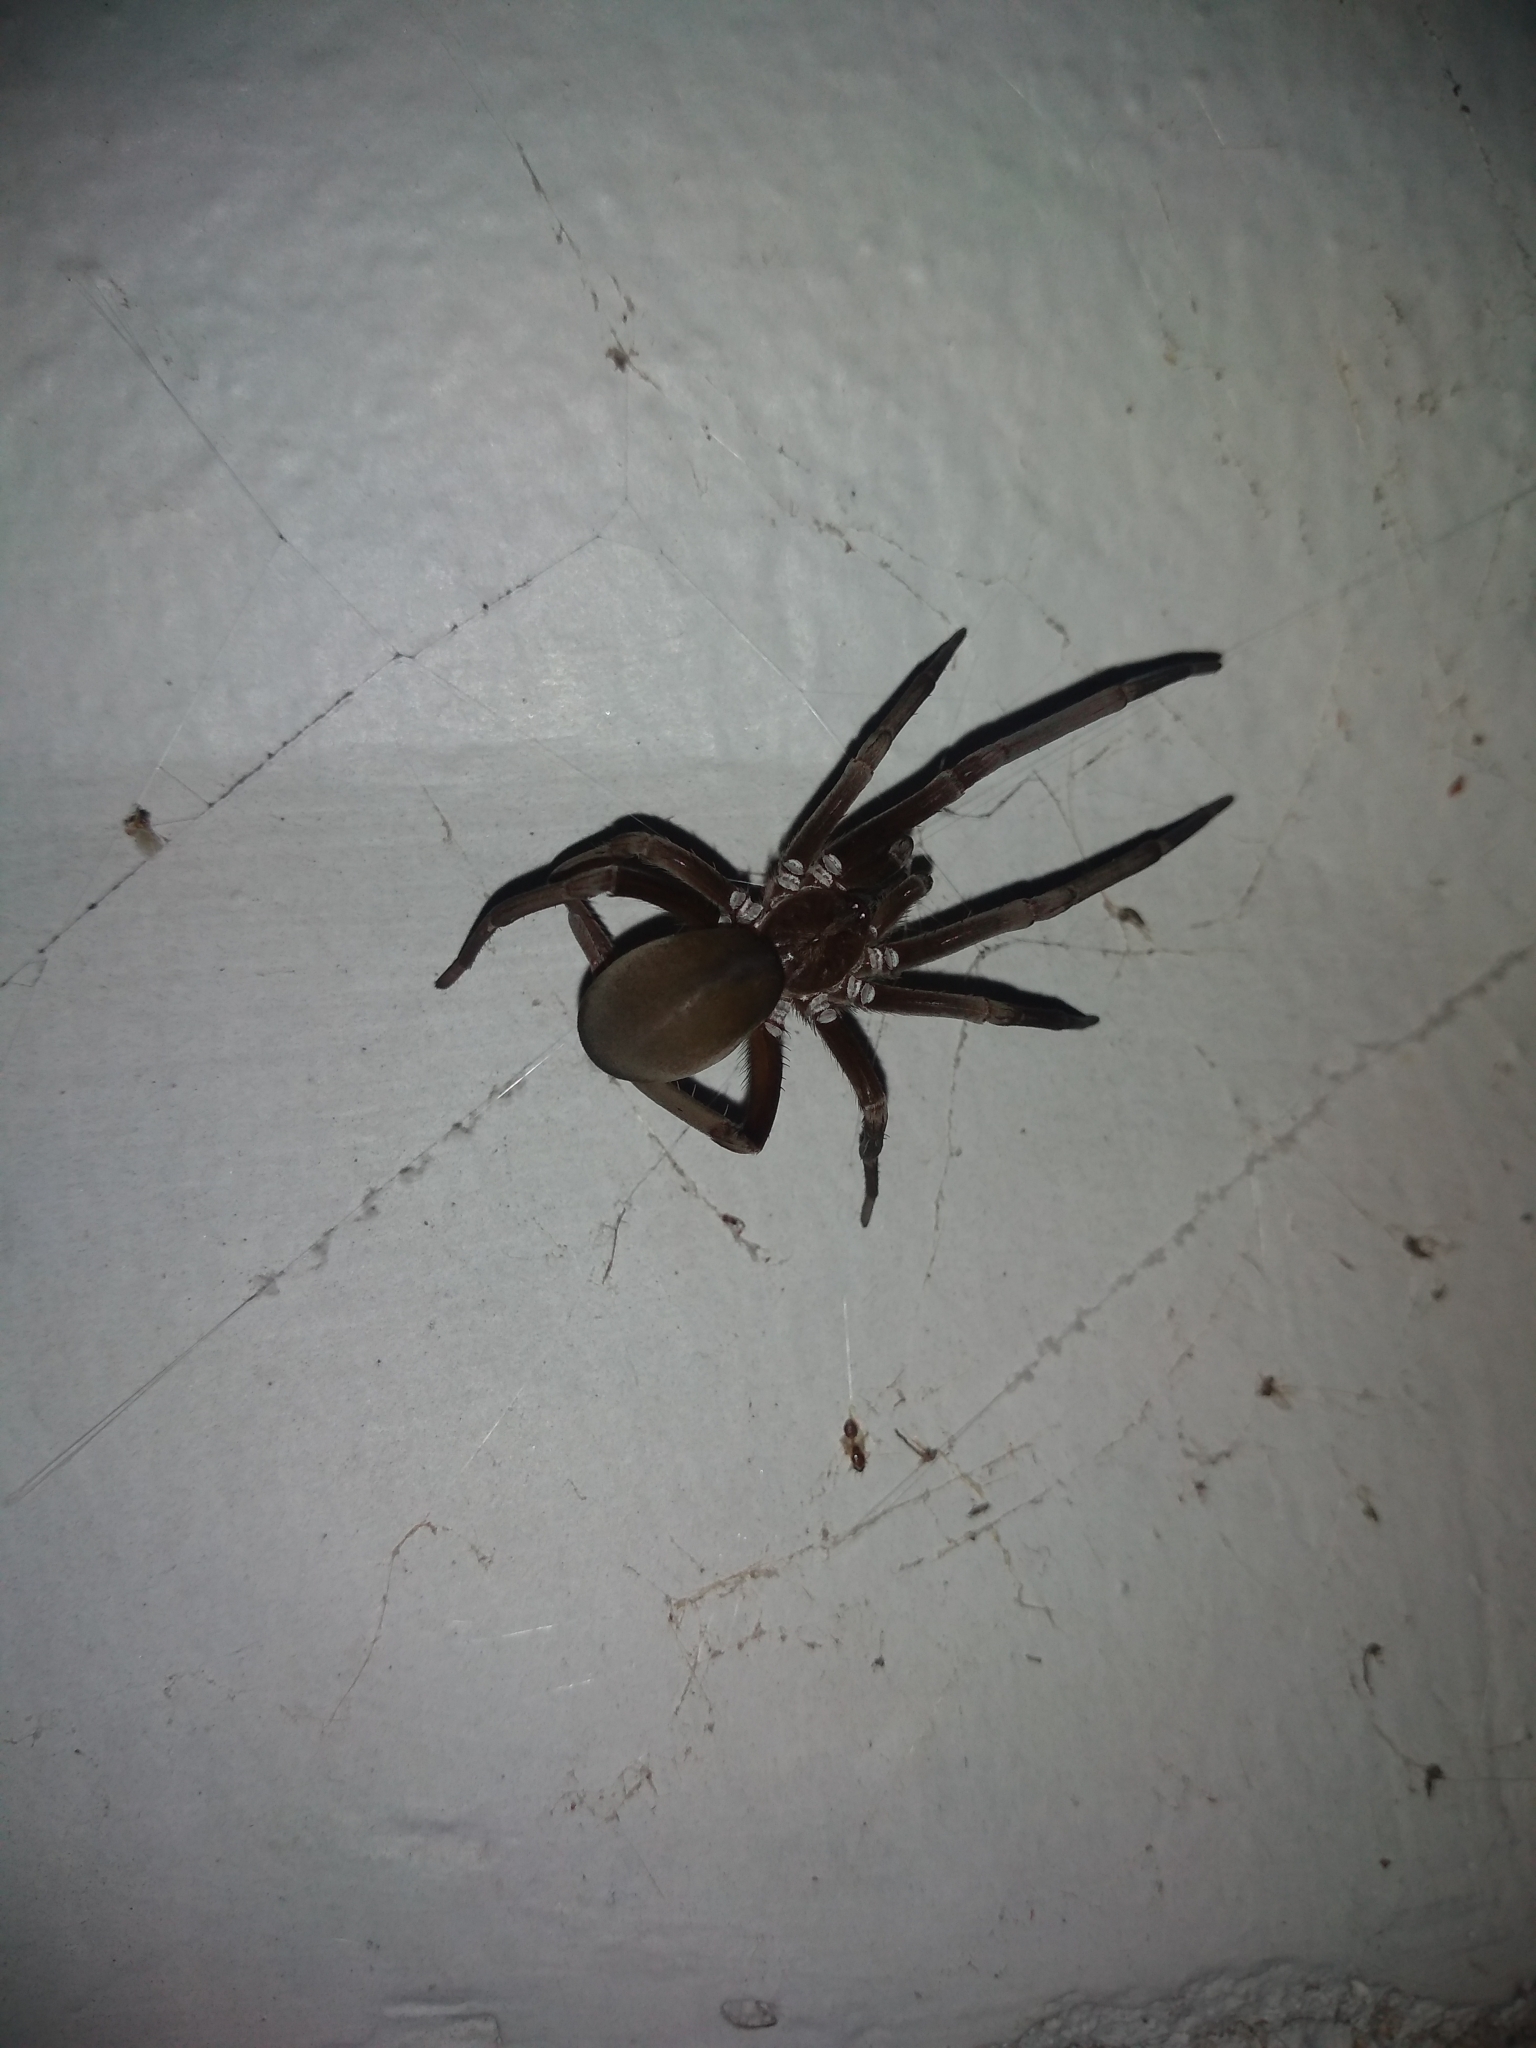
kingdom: Animalia
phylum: Arthropoda
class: Arachnida
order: Araneae
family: Filistatidae
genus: Kukulcania
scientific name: Kukulcania hibernalis
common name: Crevice weaver
